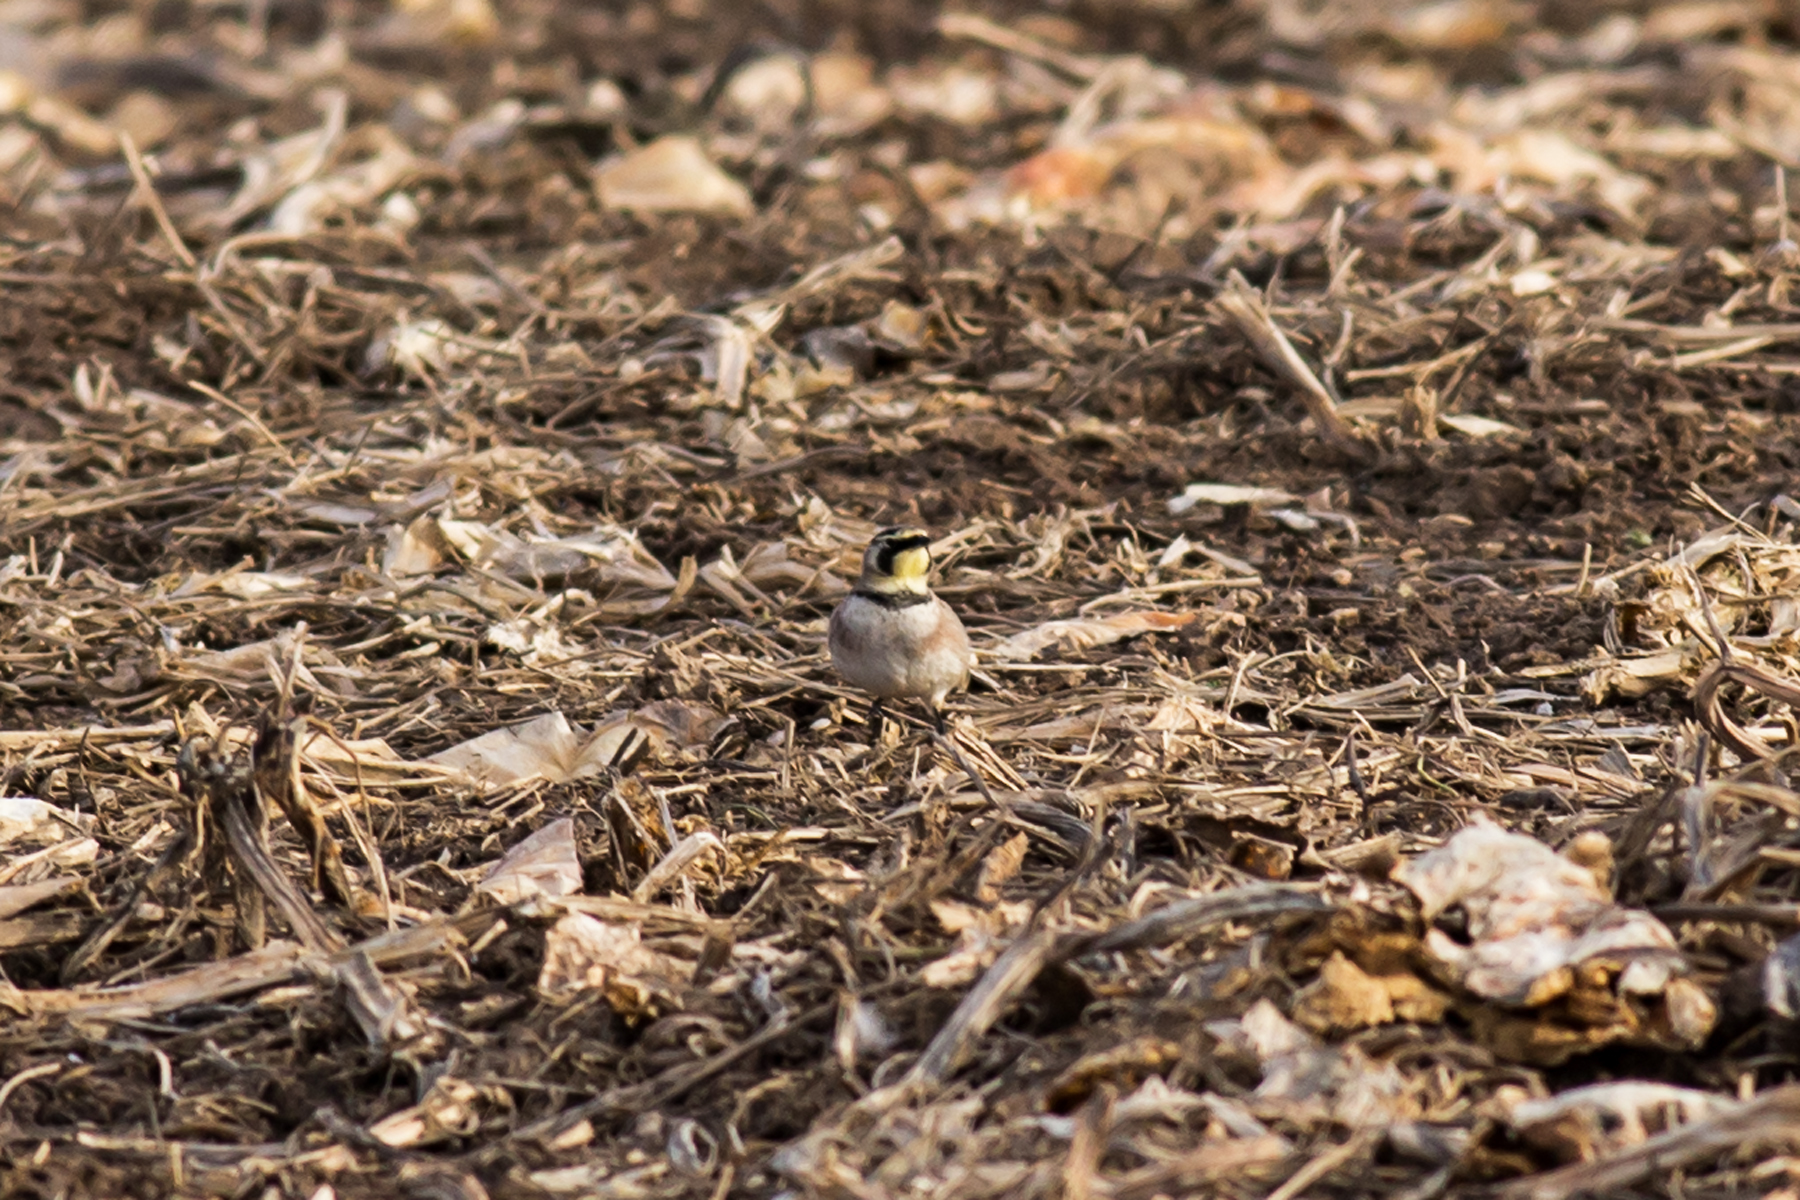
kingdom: Animalia
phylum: Chordata
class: Aves
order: Passeriformes
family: Alaudidae
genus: Eremophila
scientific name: Eremophila alpestris
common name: Horned lark
